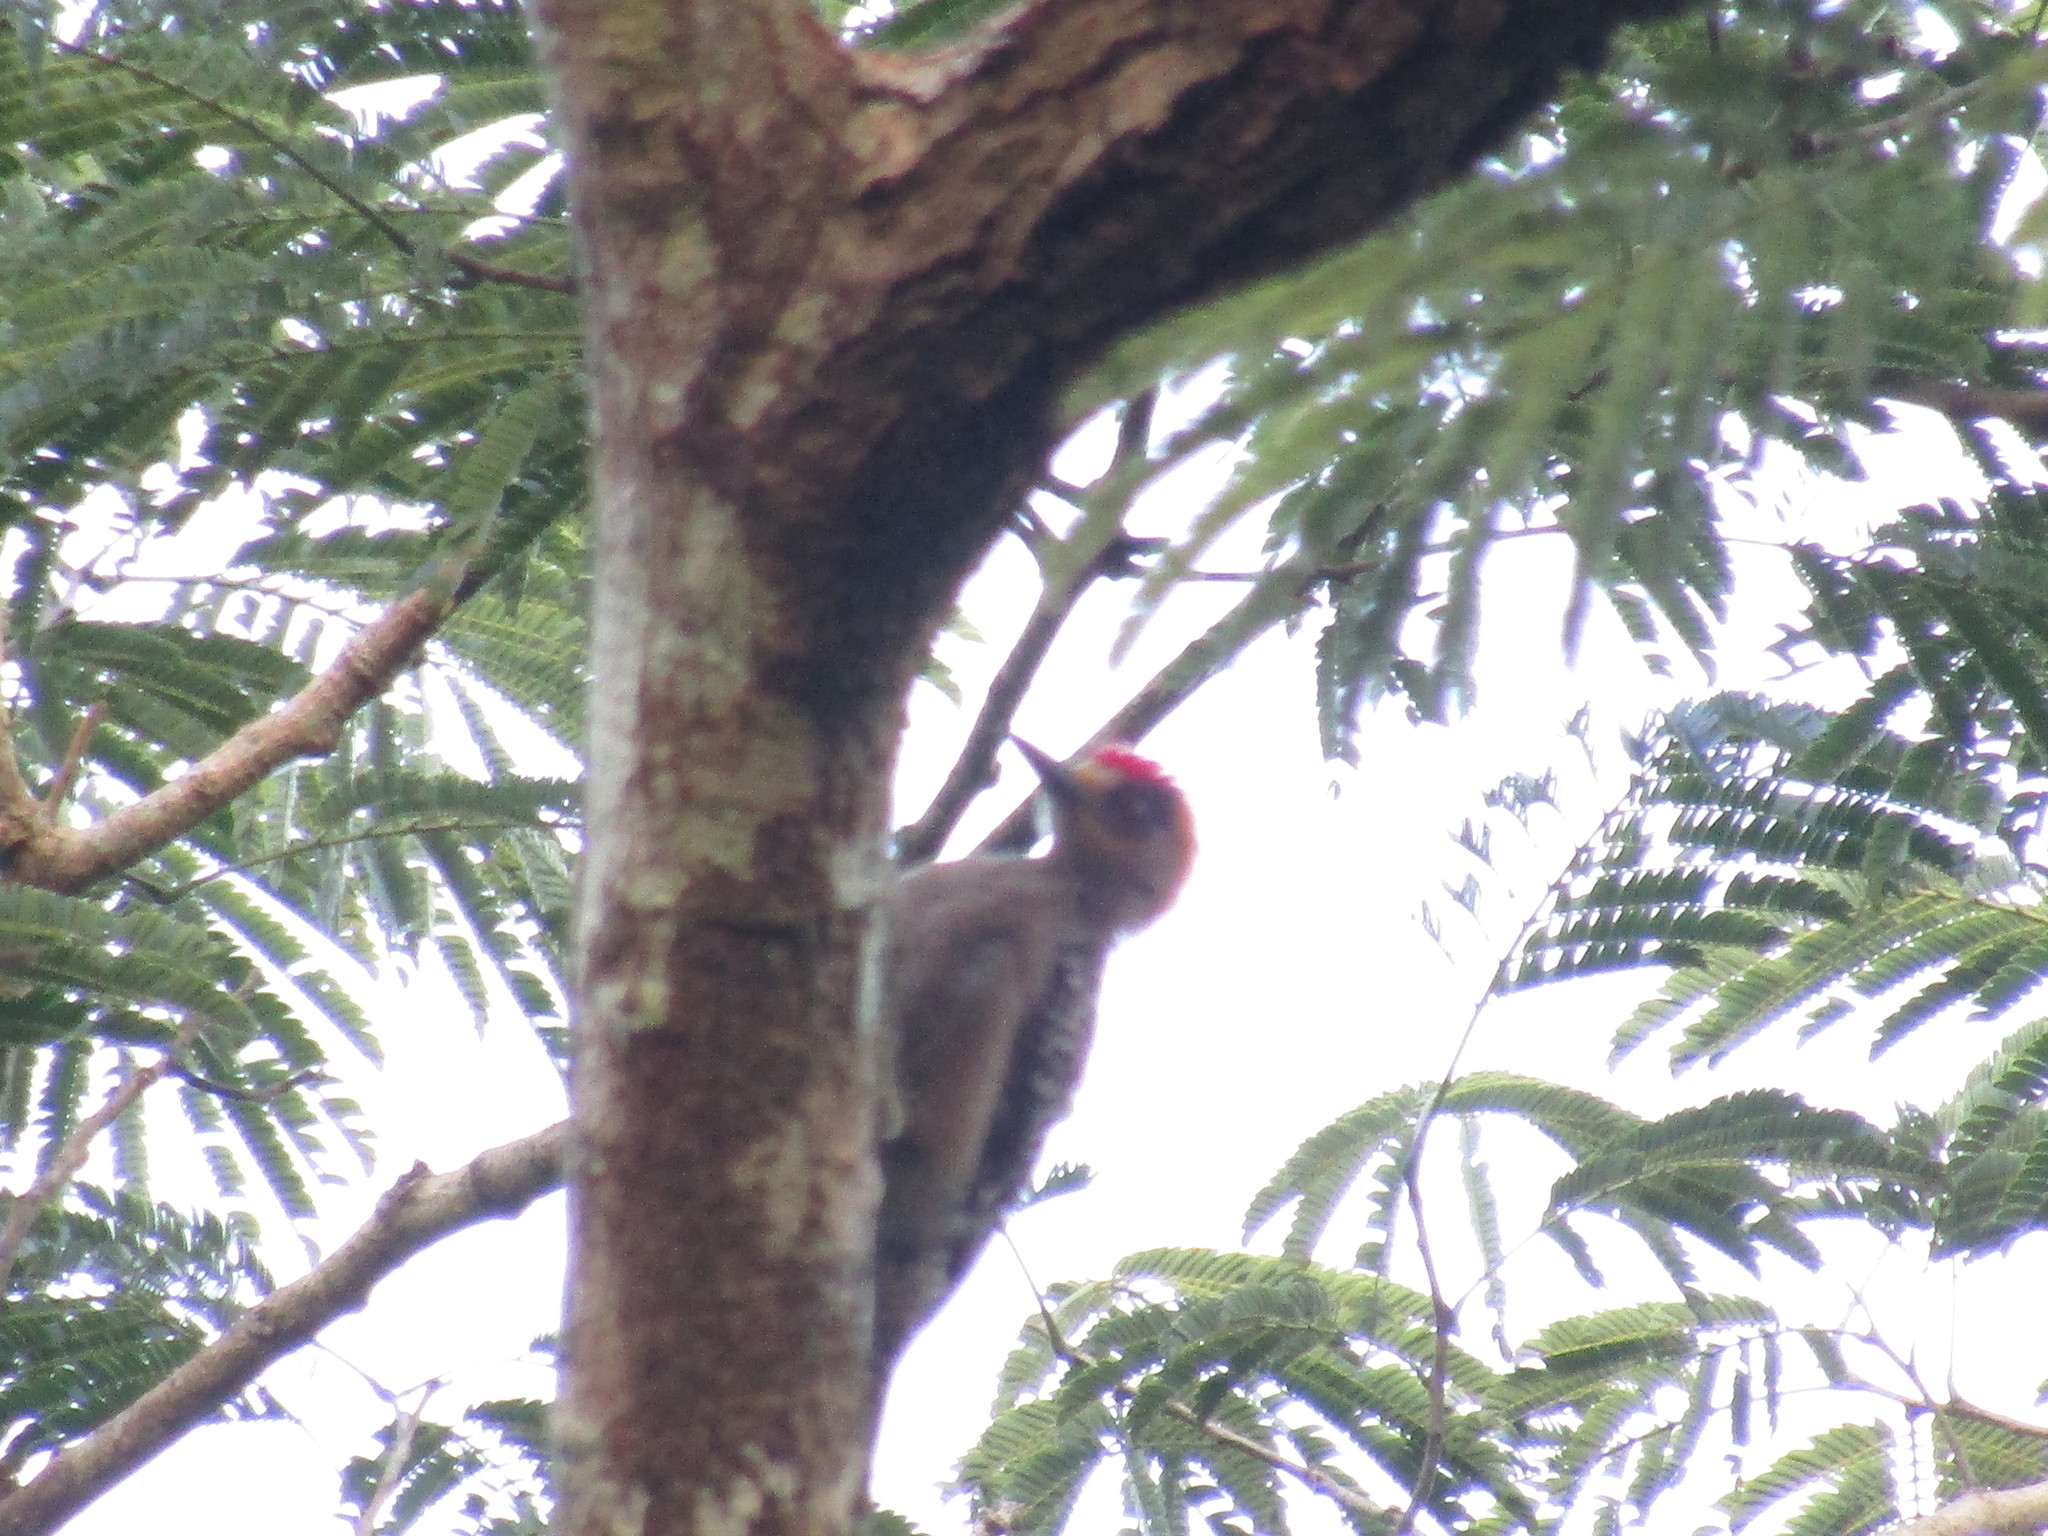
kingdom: Animalia
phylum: Chordata
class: Aves
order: Piciformes
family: Picidae
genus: Melanerpes
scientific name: Melanerpes chrysogenys
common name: Golden-cheeked woodpecker
